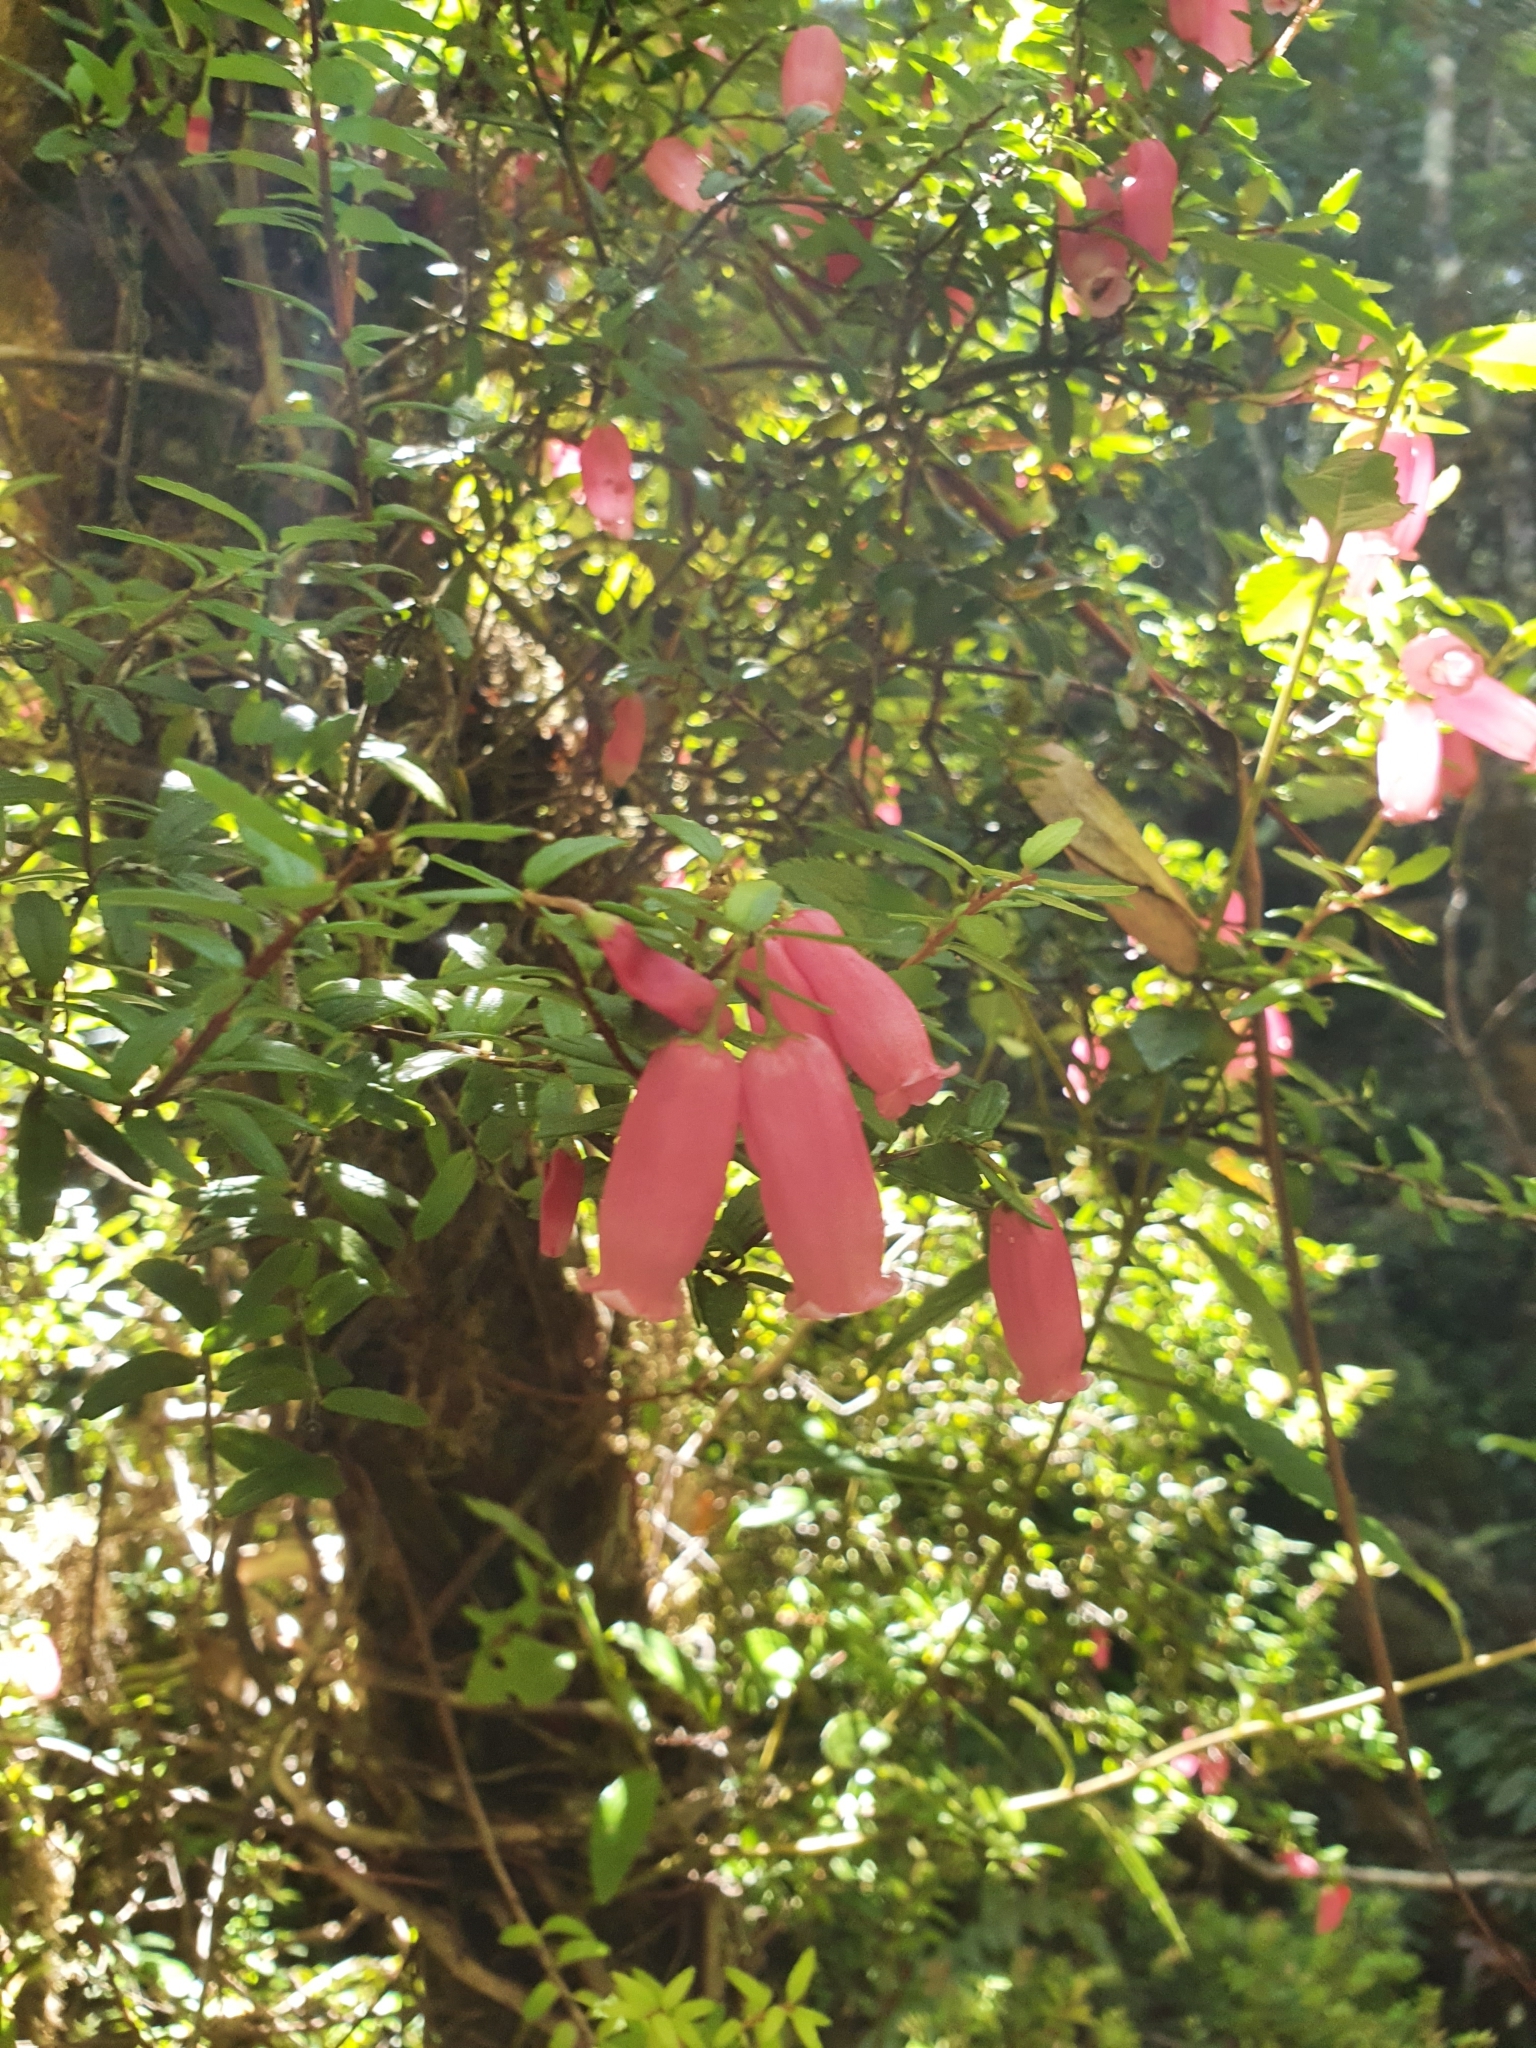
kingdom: Plantae
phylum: Tracheophyta
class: Magnoliopsida
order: Ericales
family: Ericaceae
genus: Prionotes
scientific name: Prionotes cerinthoides
